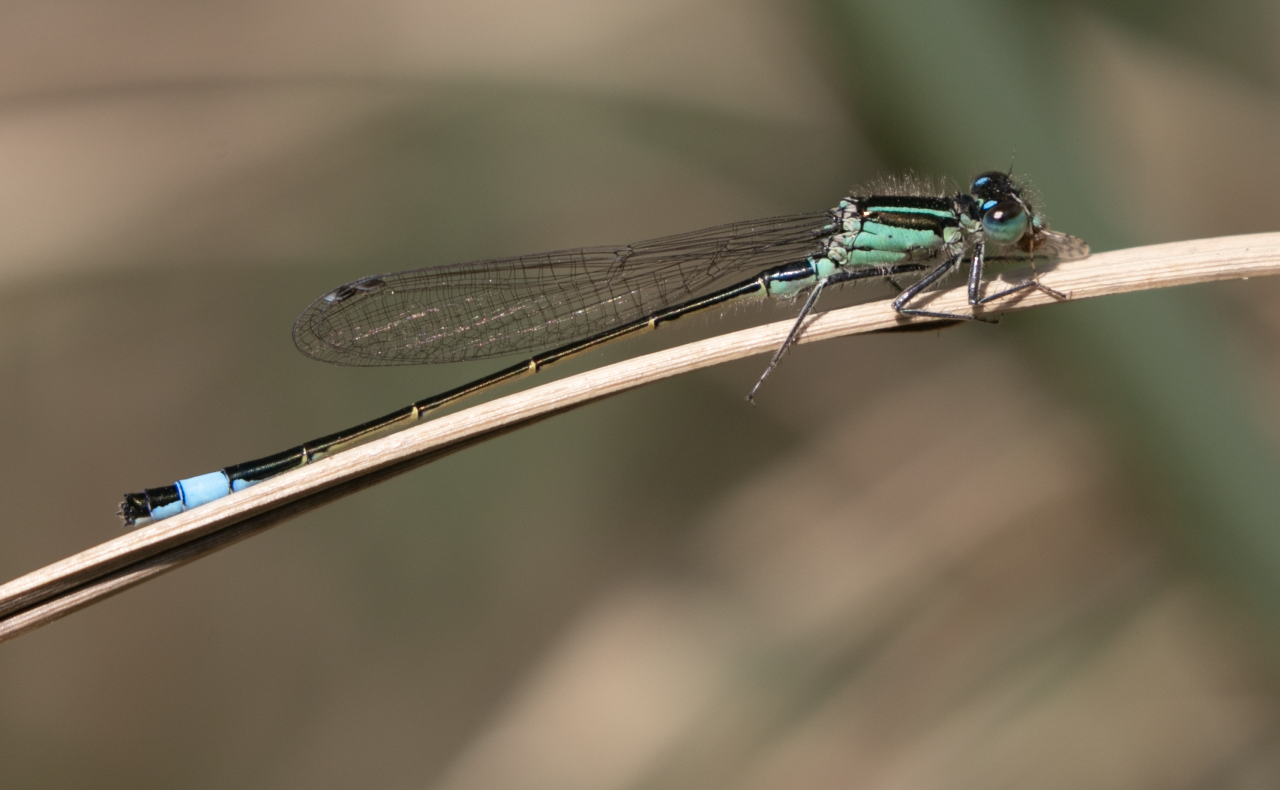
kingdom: Animalia
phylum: Arthropoda
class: Insecta
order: Odonata
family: Coenagrionidae
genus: Ischnura
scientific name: Ischnura elegans
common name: Blue-tailed damselfly
